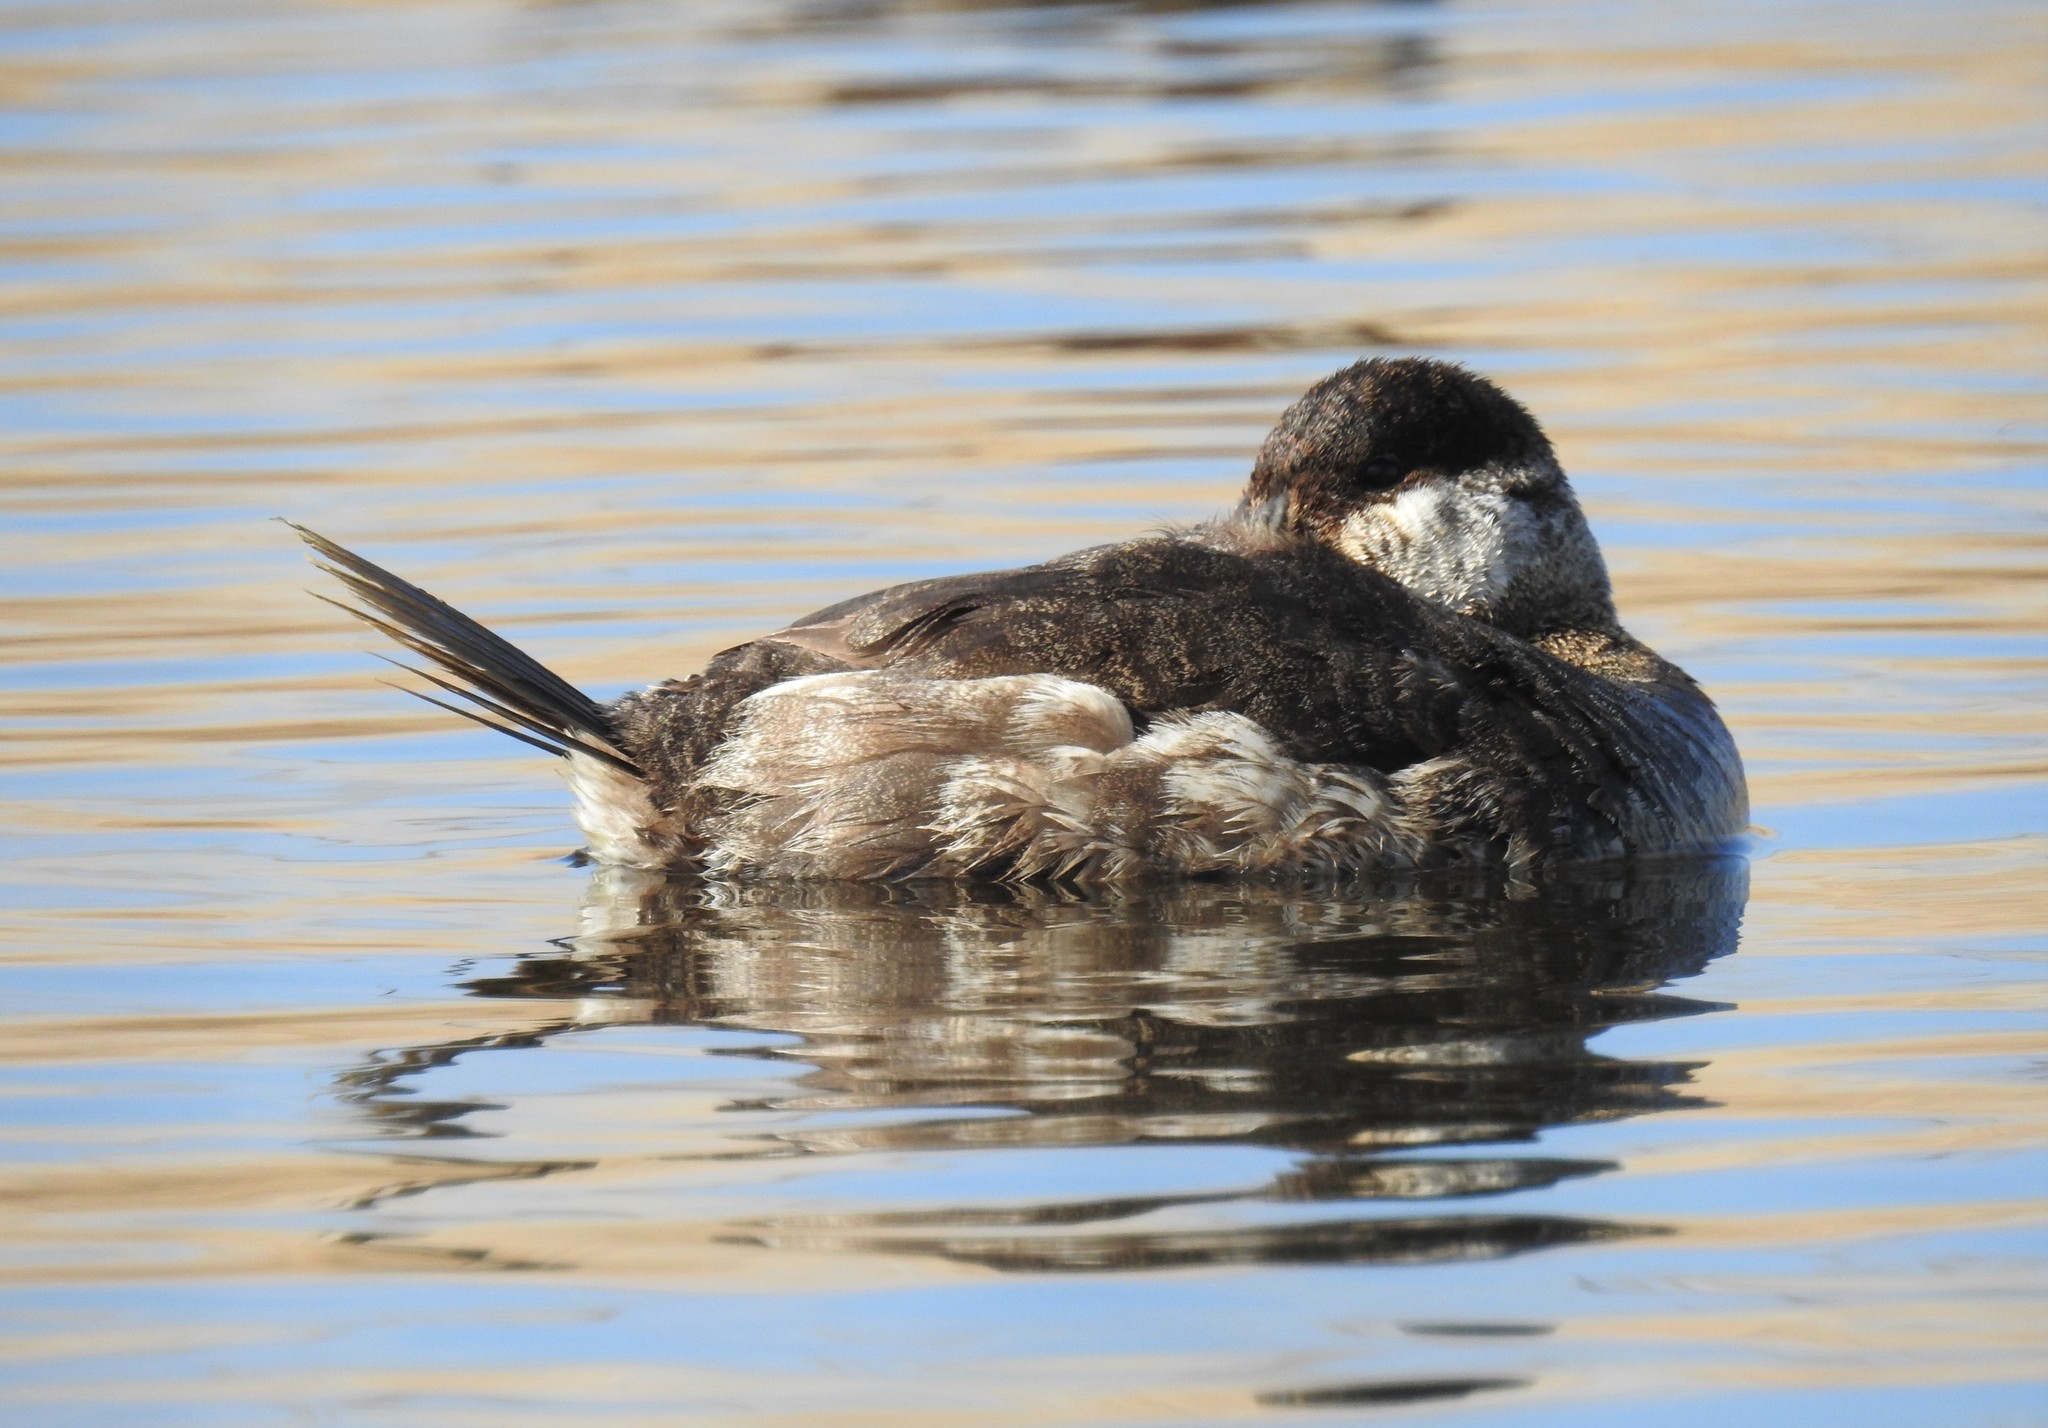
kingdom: Animalia
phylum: Chordata
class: Aves
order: Anseriformes
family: Anatidae
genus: Oxyura
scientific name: Oxyura jamaicensis
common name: Ruddy duck
